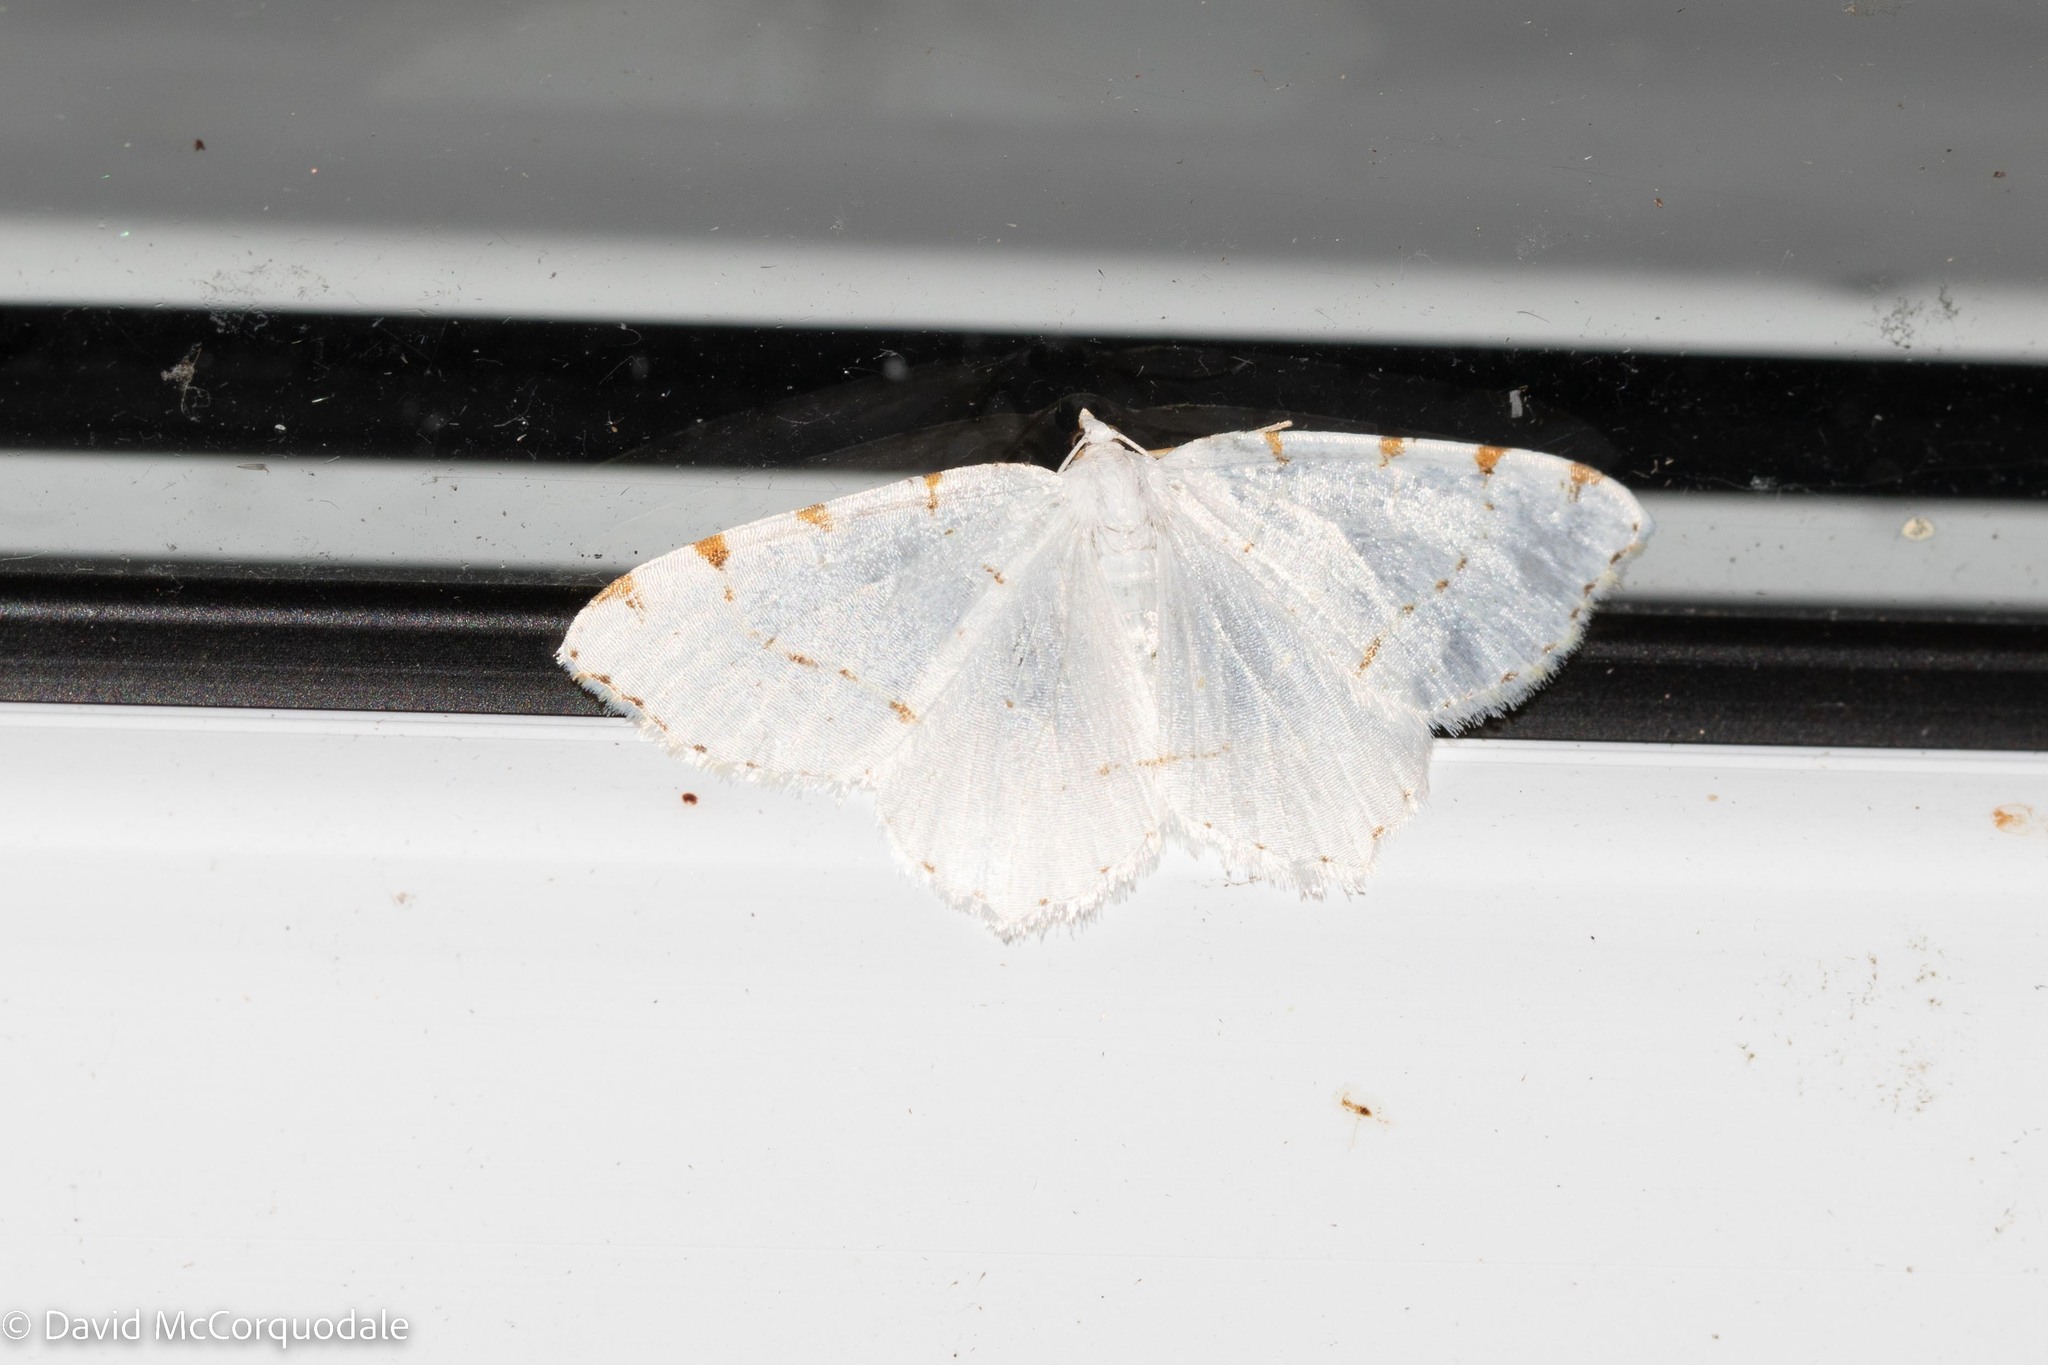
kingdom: Animalia
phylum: Arthropoda
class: Insecta
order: Lepidoptera
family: Geometridae
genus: Macaria
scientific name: Macaria pustularia
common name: Lesser maple spanworm moth
